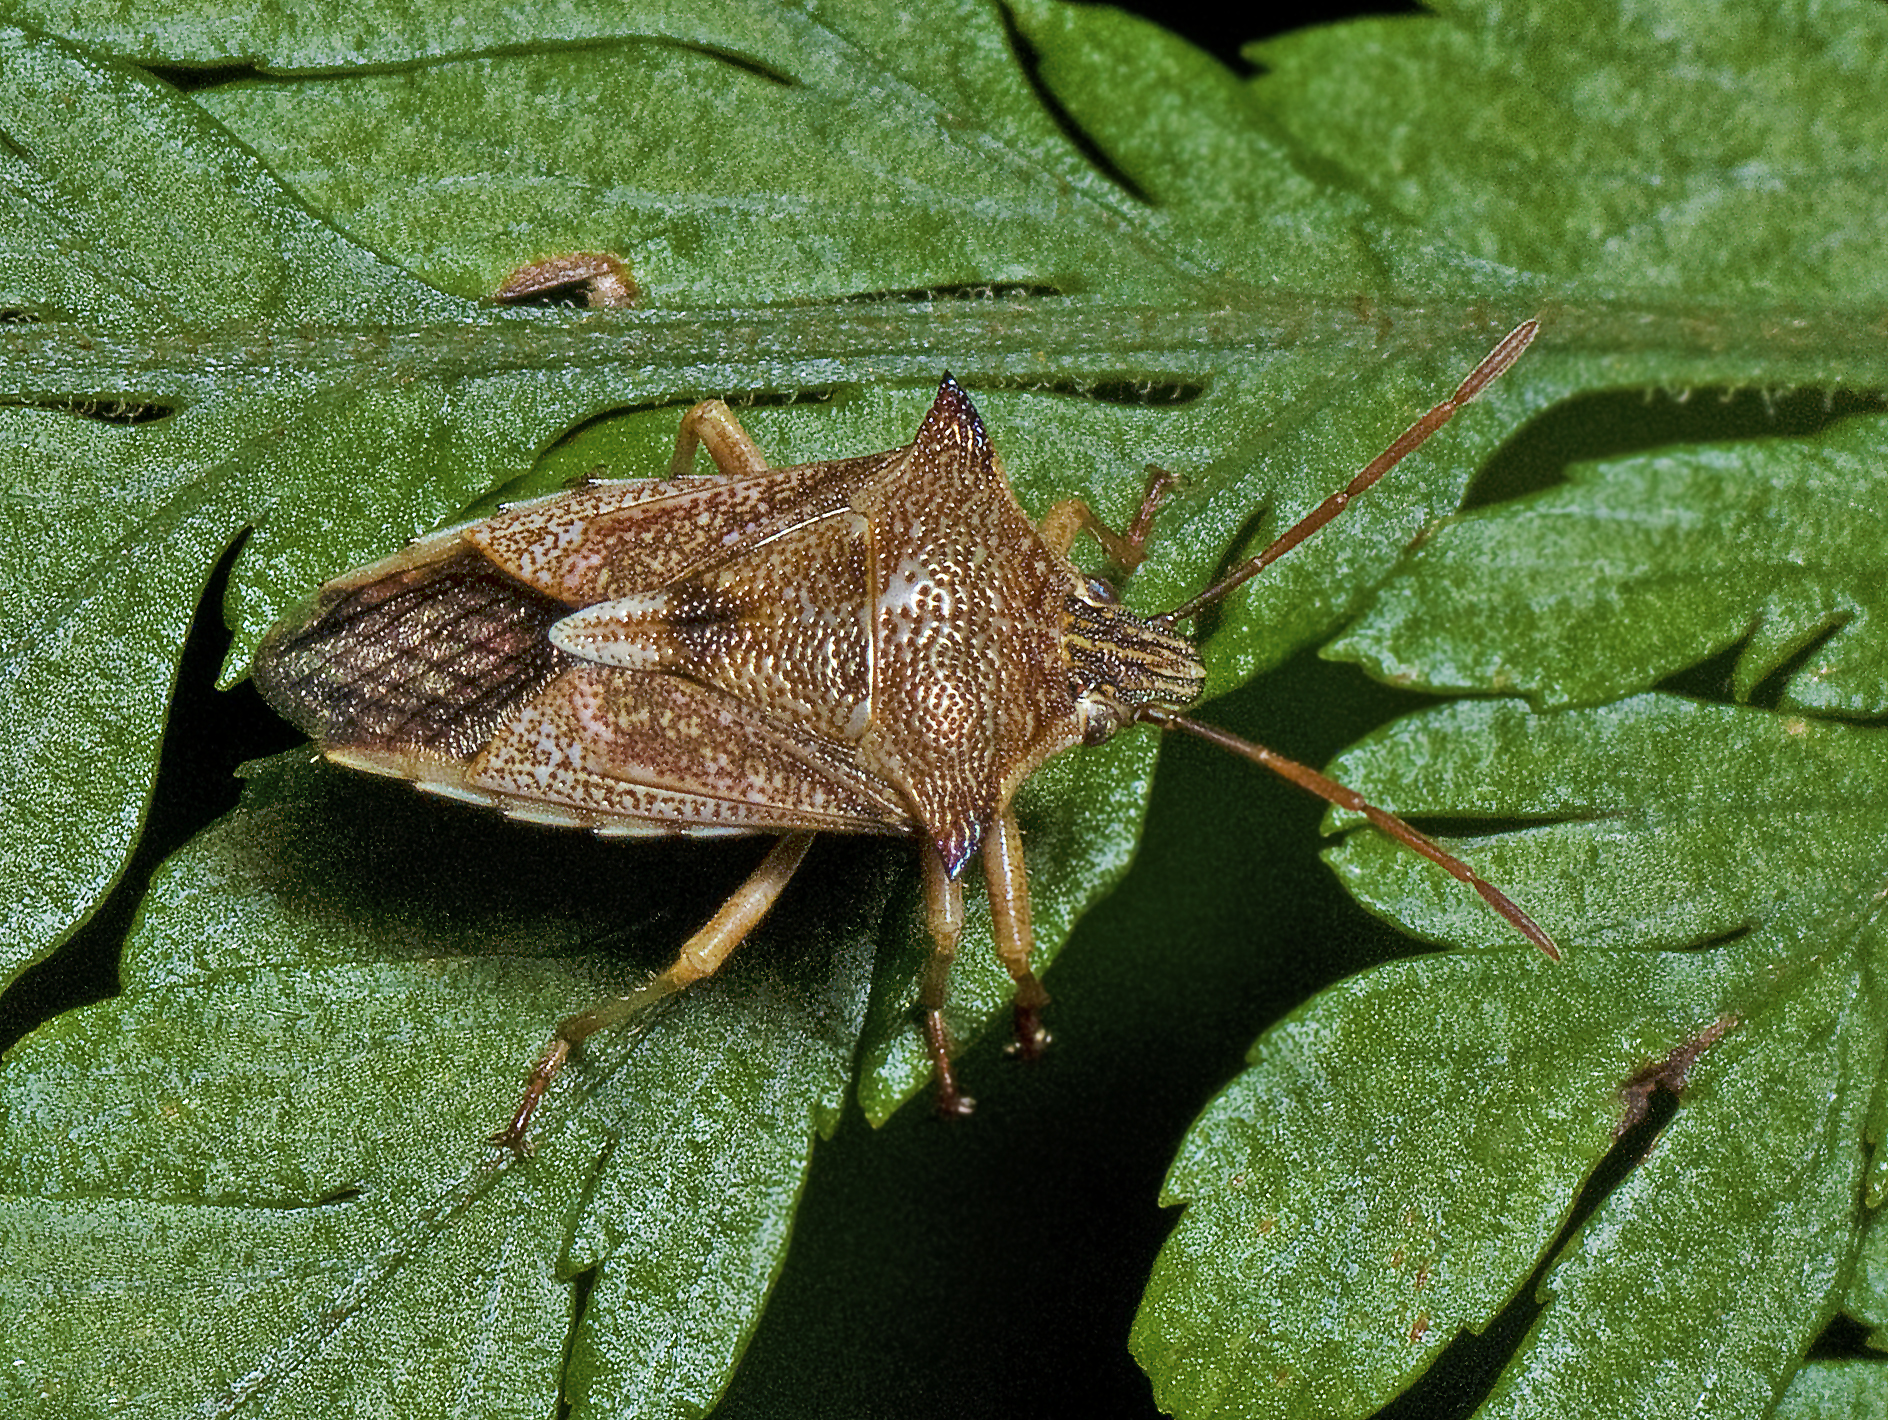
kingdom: Animalia
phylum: Arthropoda
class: Insecta
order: Hemiptera
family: Pentatomidae
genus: Oechalia
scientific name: Oechalia schellenbergii
